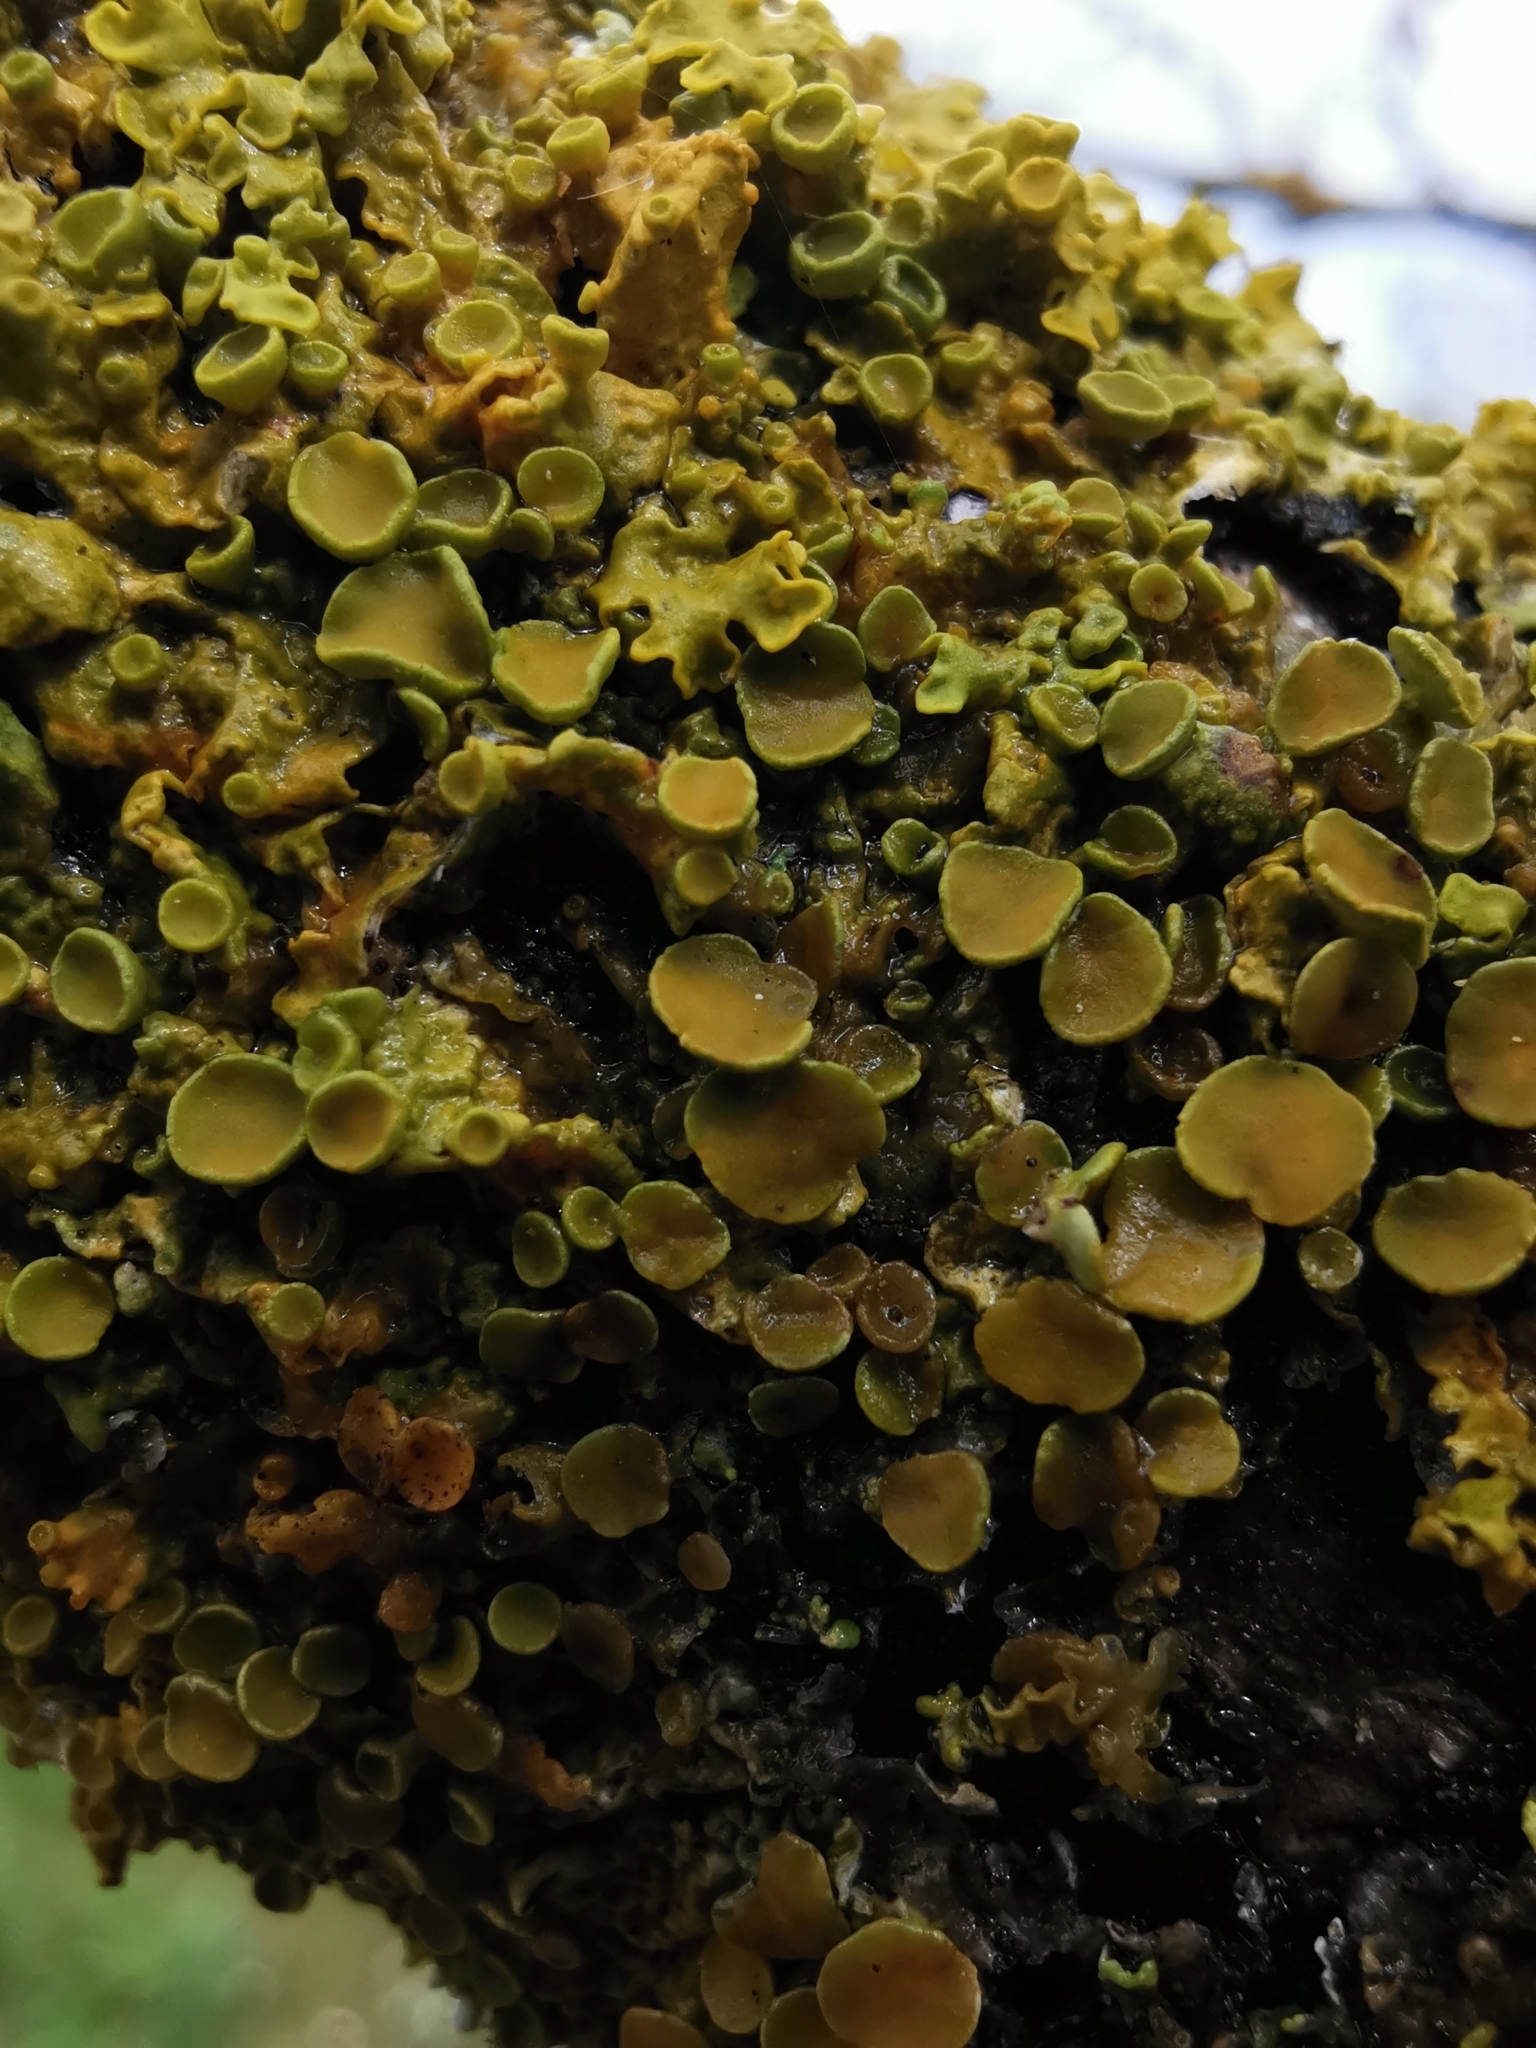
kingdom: Fungi
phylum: Ascomycota
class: Lecanoromycetes
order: Teloschistales
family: Teloschistaceae
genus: Xanthoria
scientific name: Xanthoria parietina
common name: Common orange lichen
